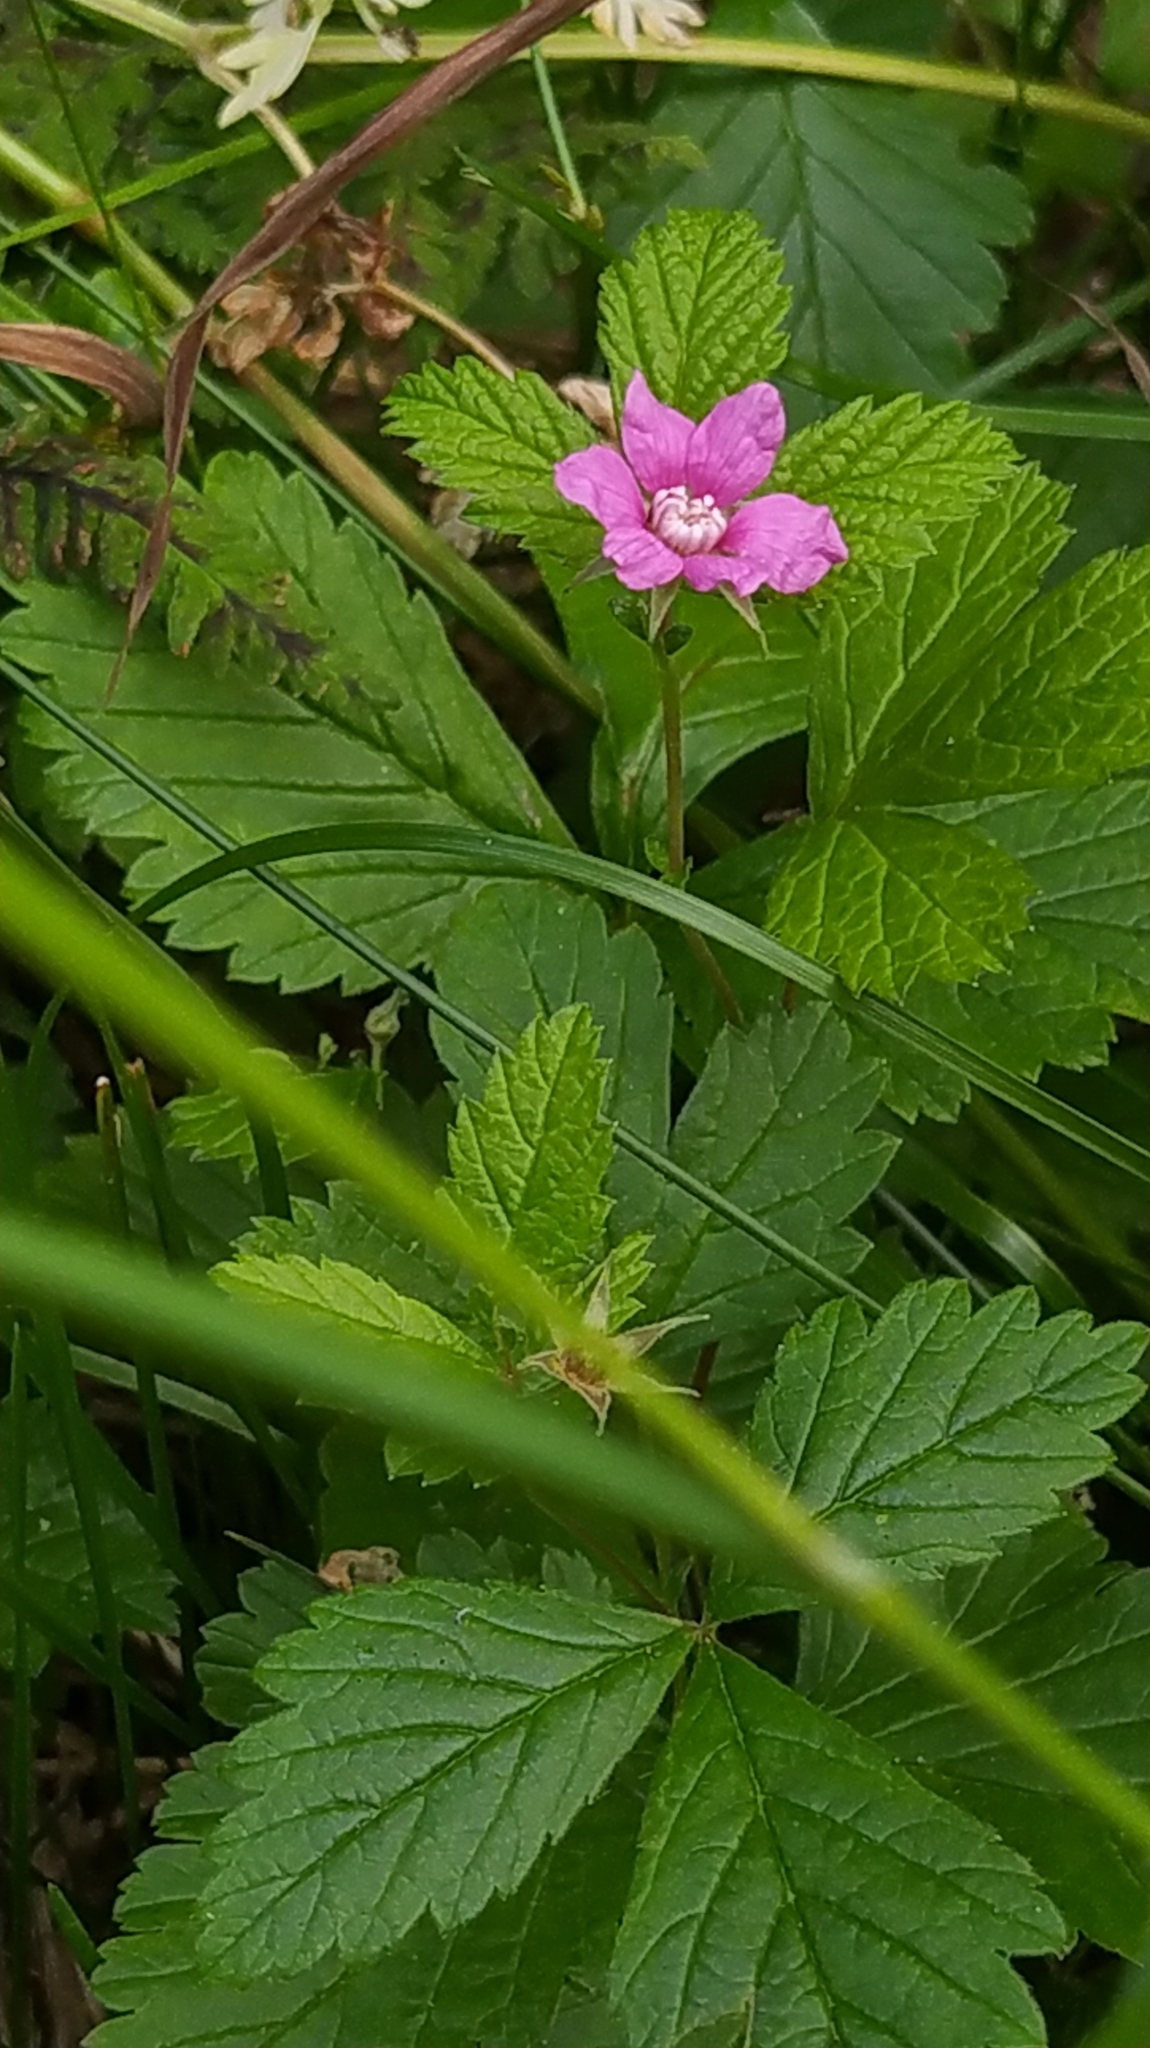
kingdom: Plantae
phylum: Tracheophyta
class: Magnoliopsida
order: Rosales
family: Rosaceae
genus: Rubus
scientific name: Rubus arcticus
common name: Arctic bramble
